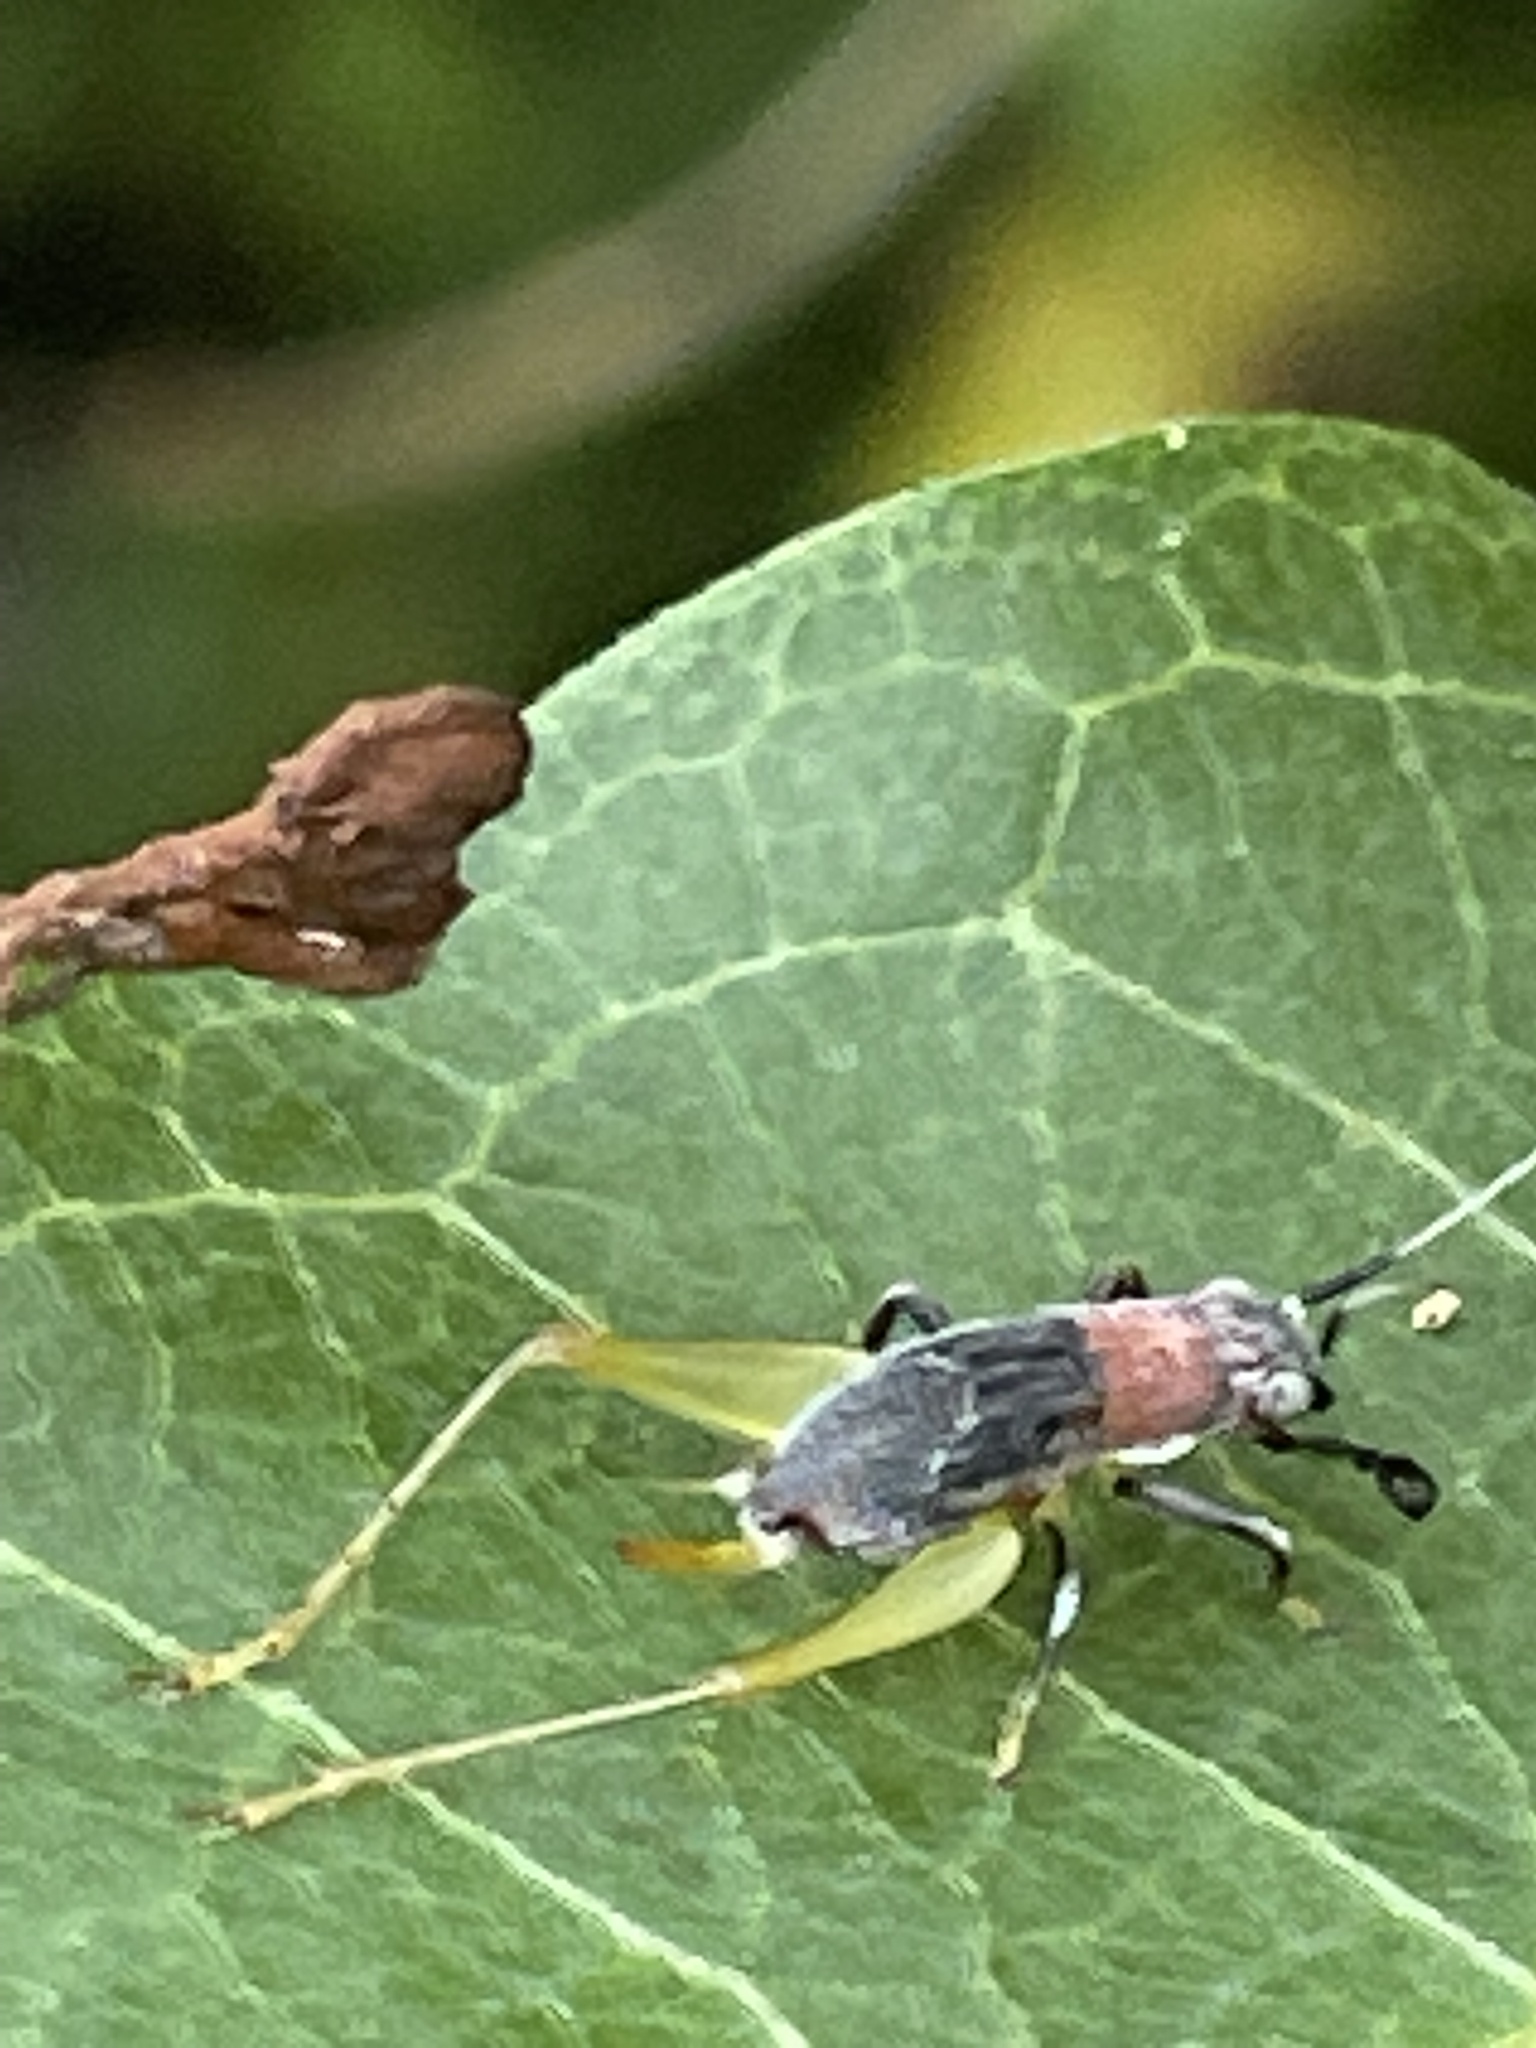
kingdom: Animalia
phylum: Arthropoda
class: Insecta
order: Orthoptera
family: Trigonidiidae
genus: Phyllopalpus
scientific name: Phyllopalpus pulchellus
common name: Handsome trig
